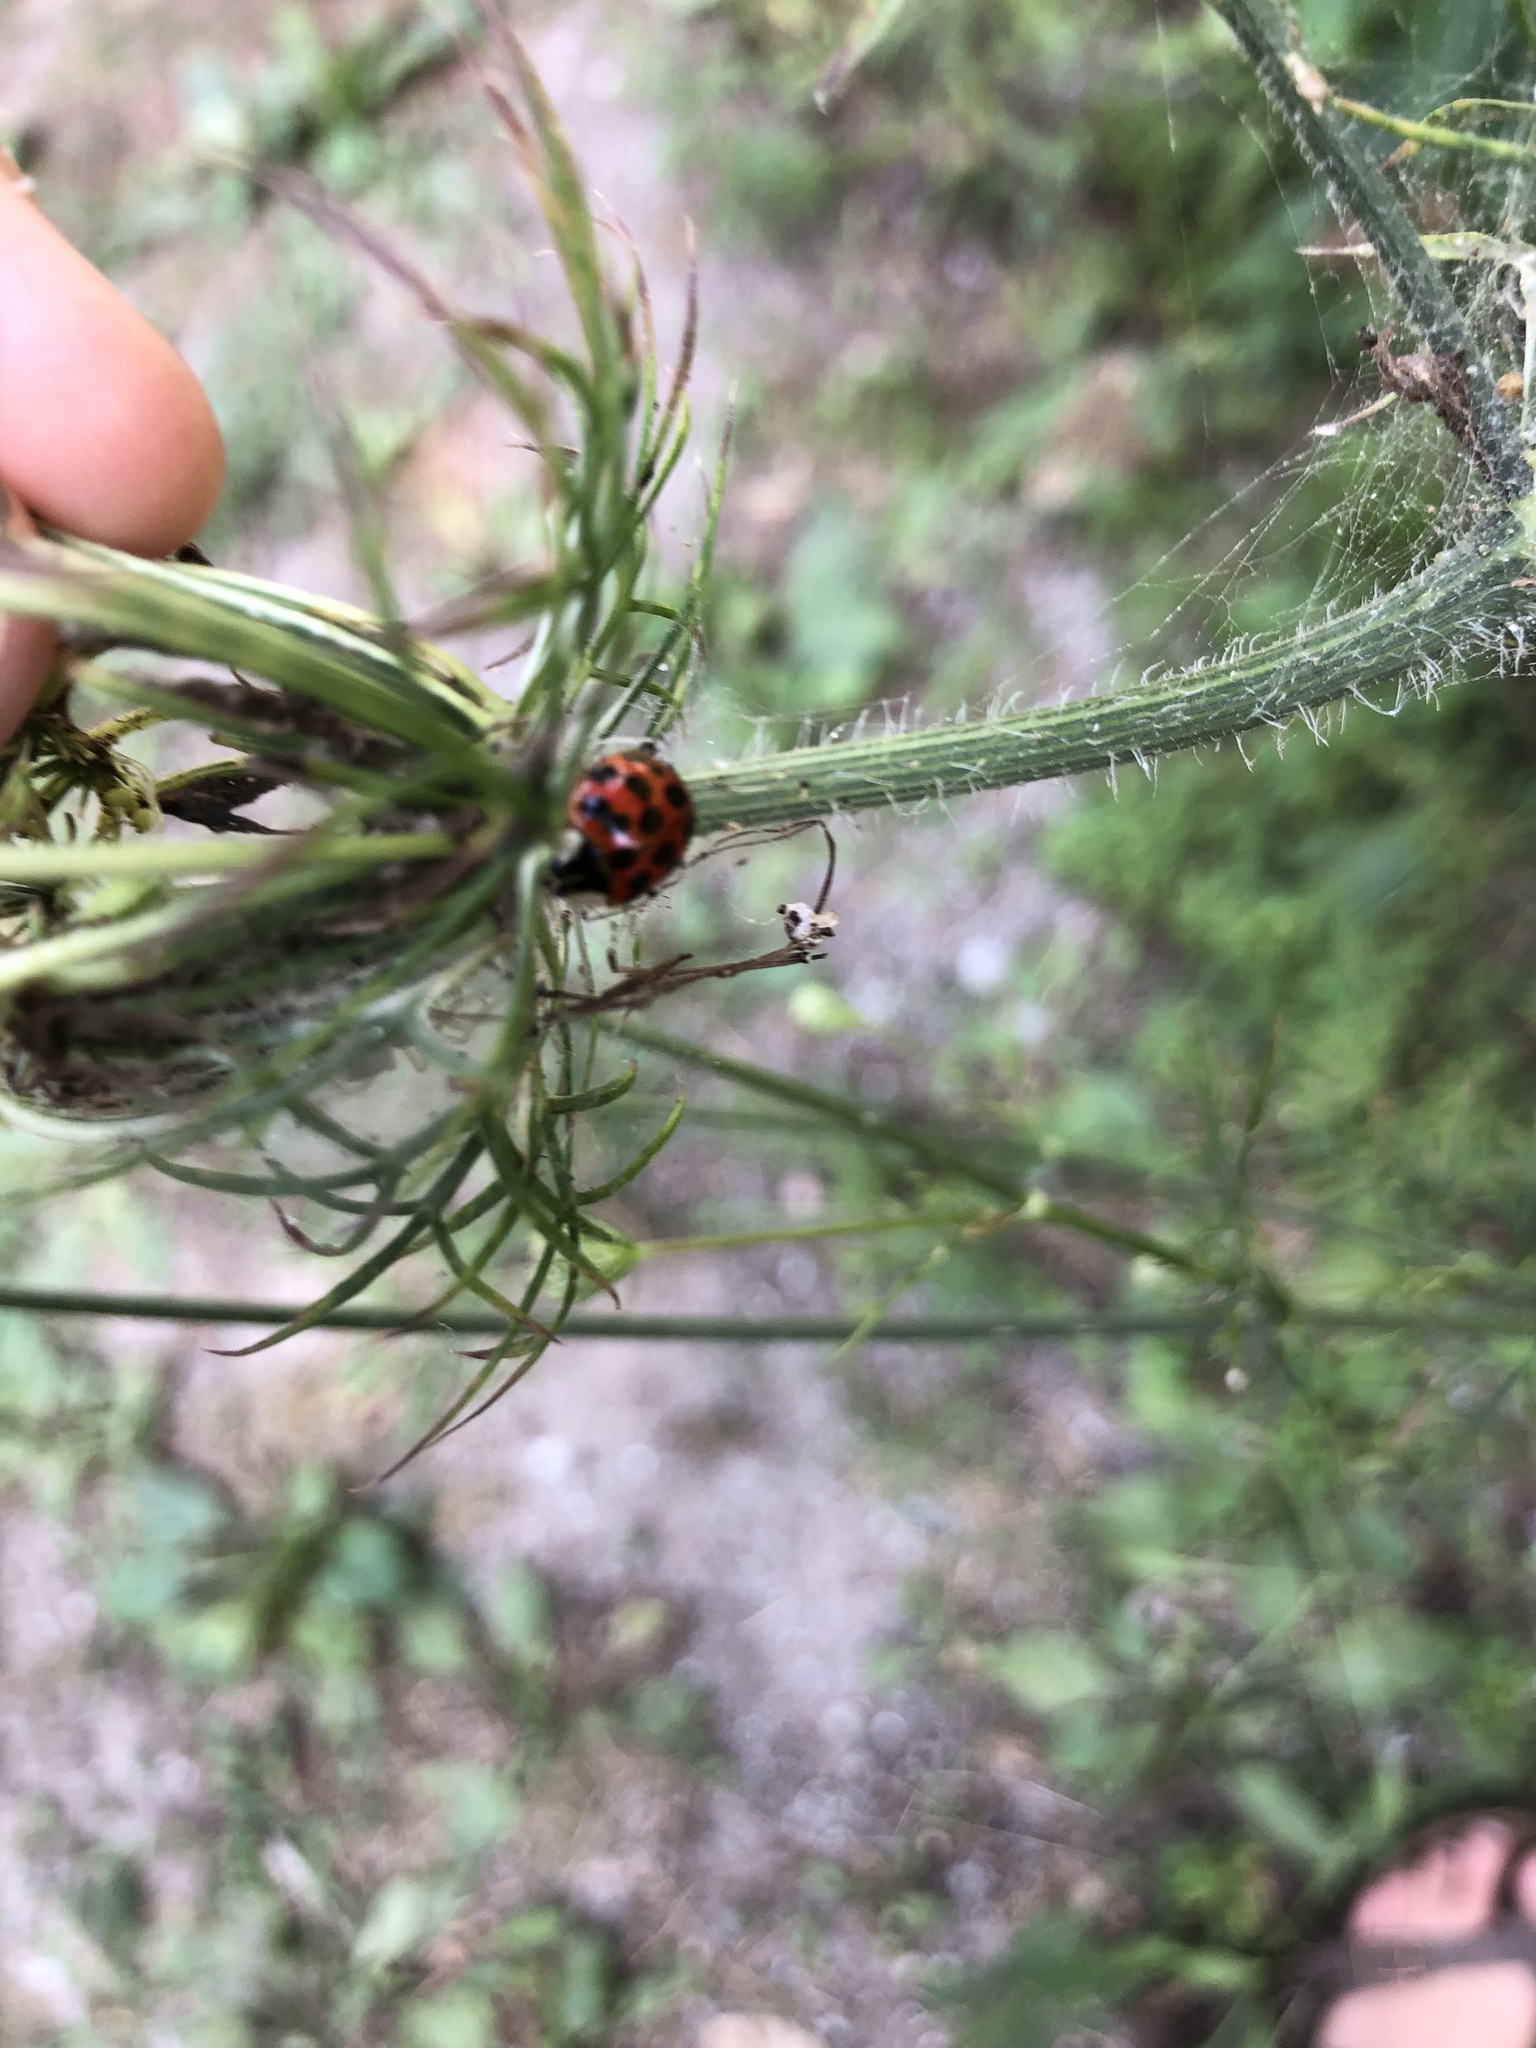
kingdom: Animalia
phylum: Arthropoda
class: Insecta
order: Coleoptera
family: Coccinellidae
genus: Harmonia
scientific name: Harmonia axyridis
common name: Harlequin ladybird
